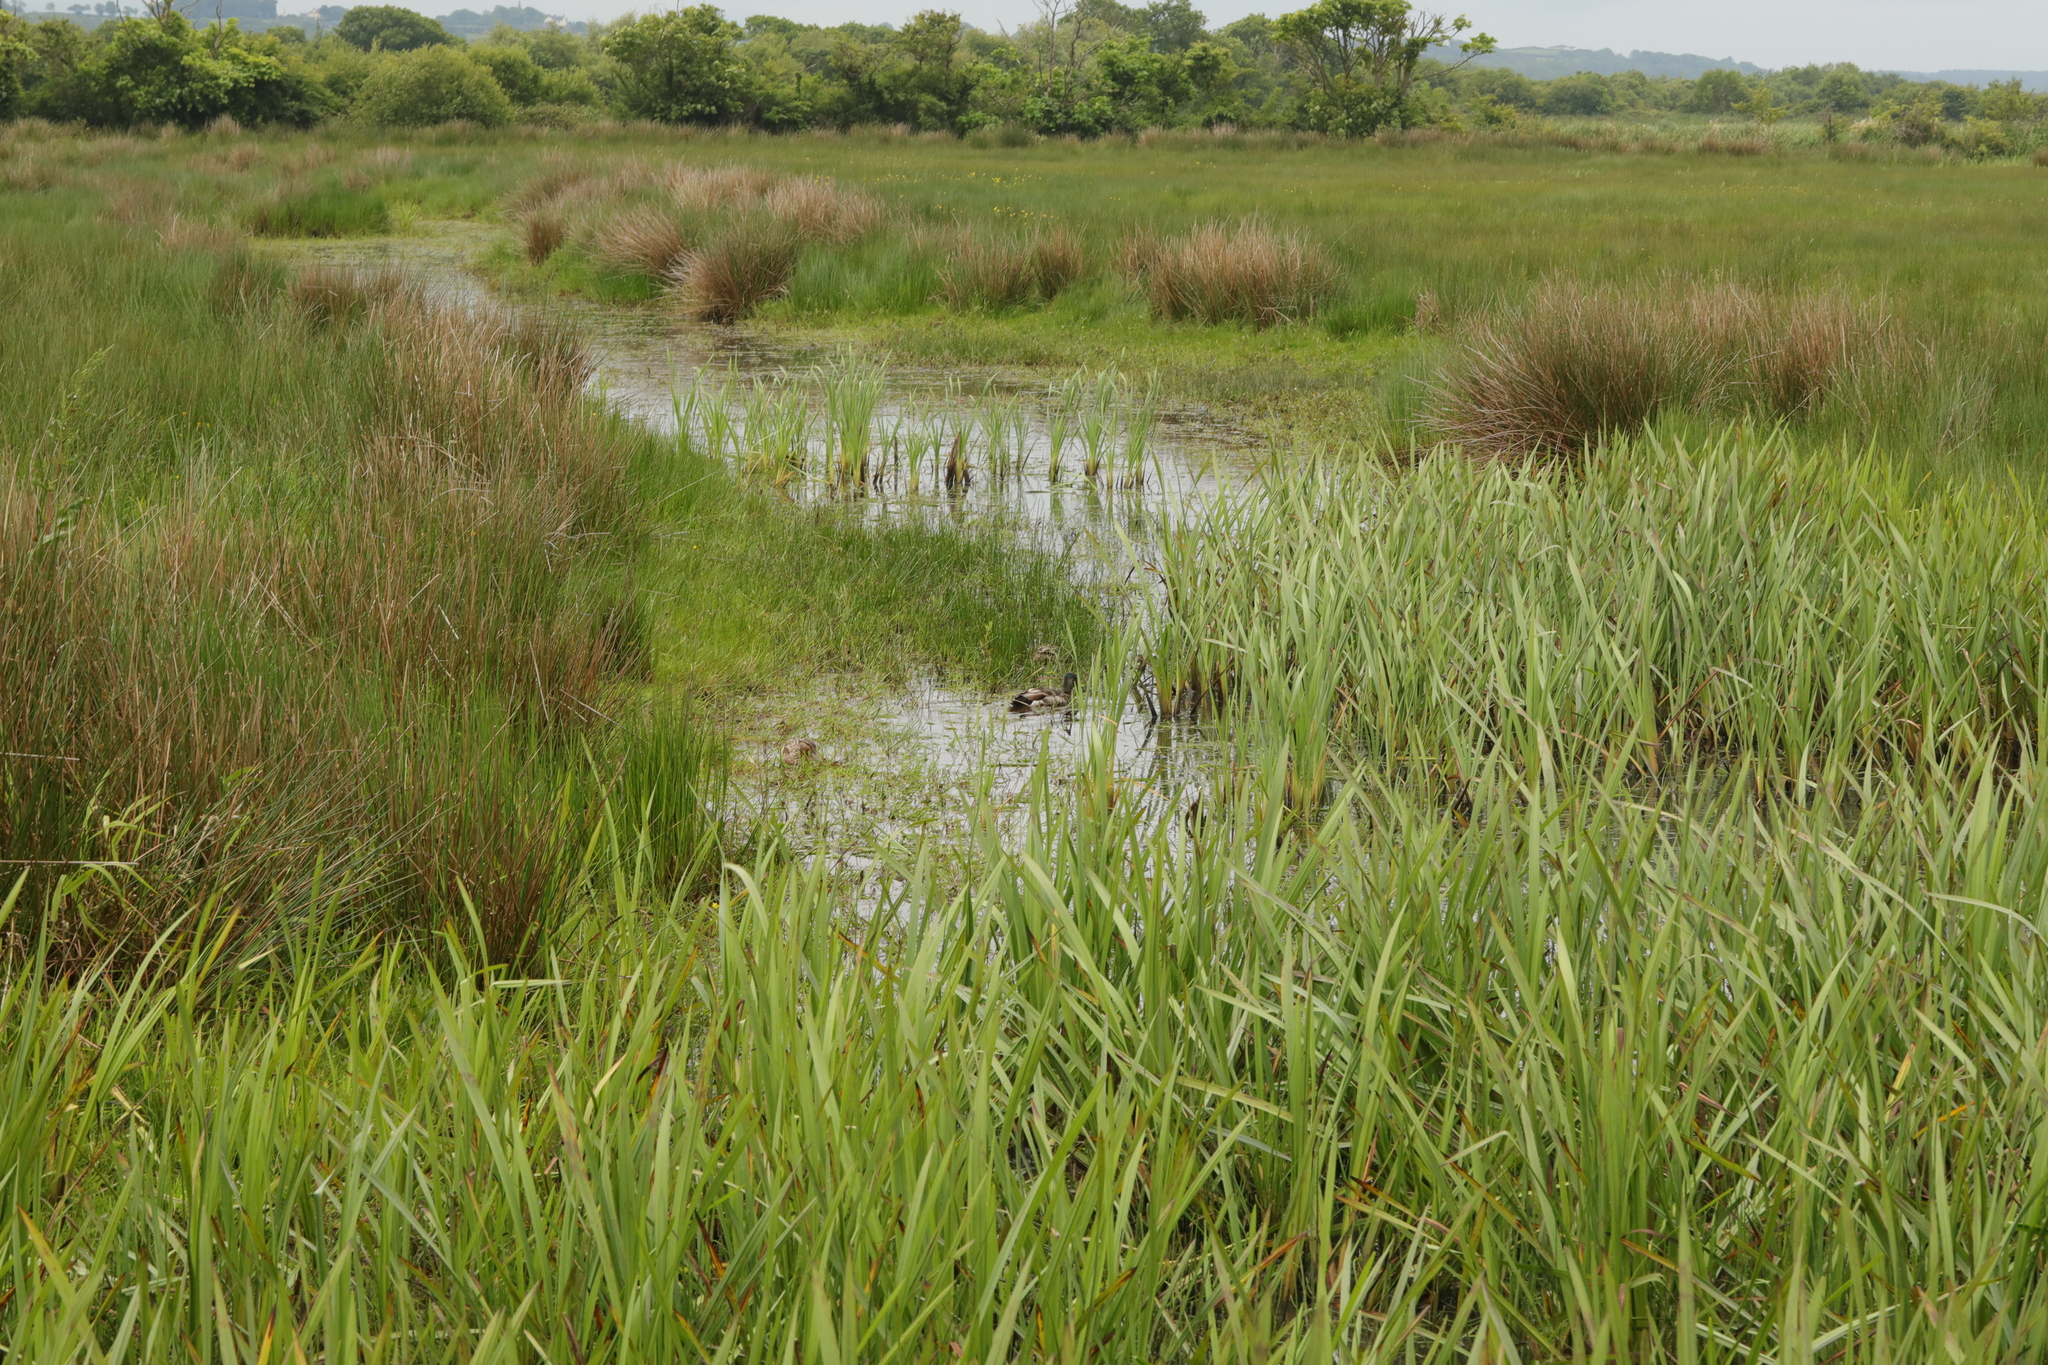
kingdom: Animalia
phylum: Chordata
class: Aves
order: Anseriformes
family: Anatidae
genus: Anas
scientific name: Anas platyrhynchos
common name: Mallard
